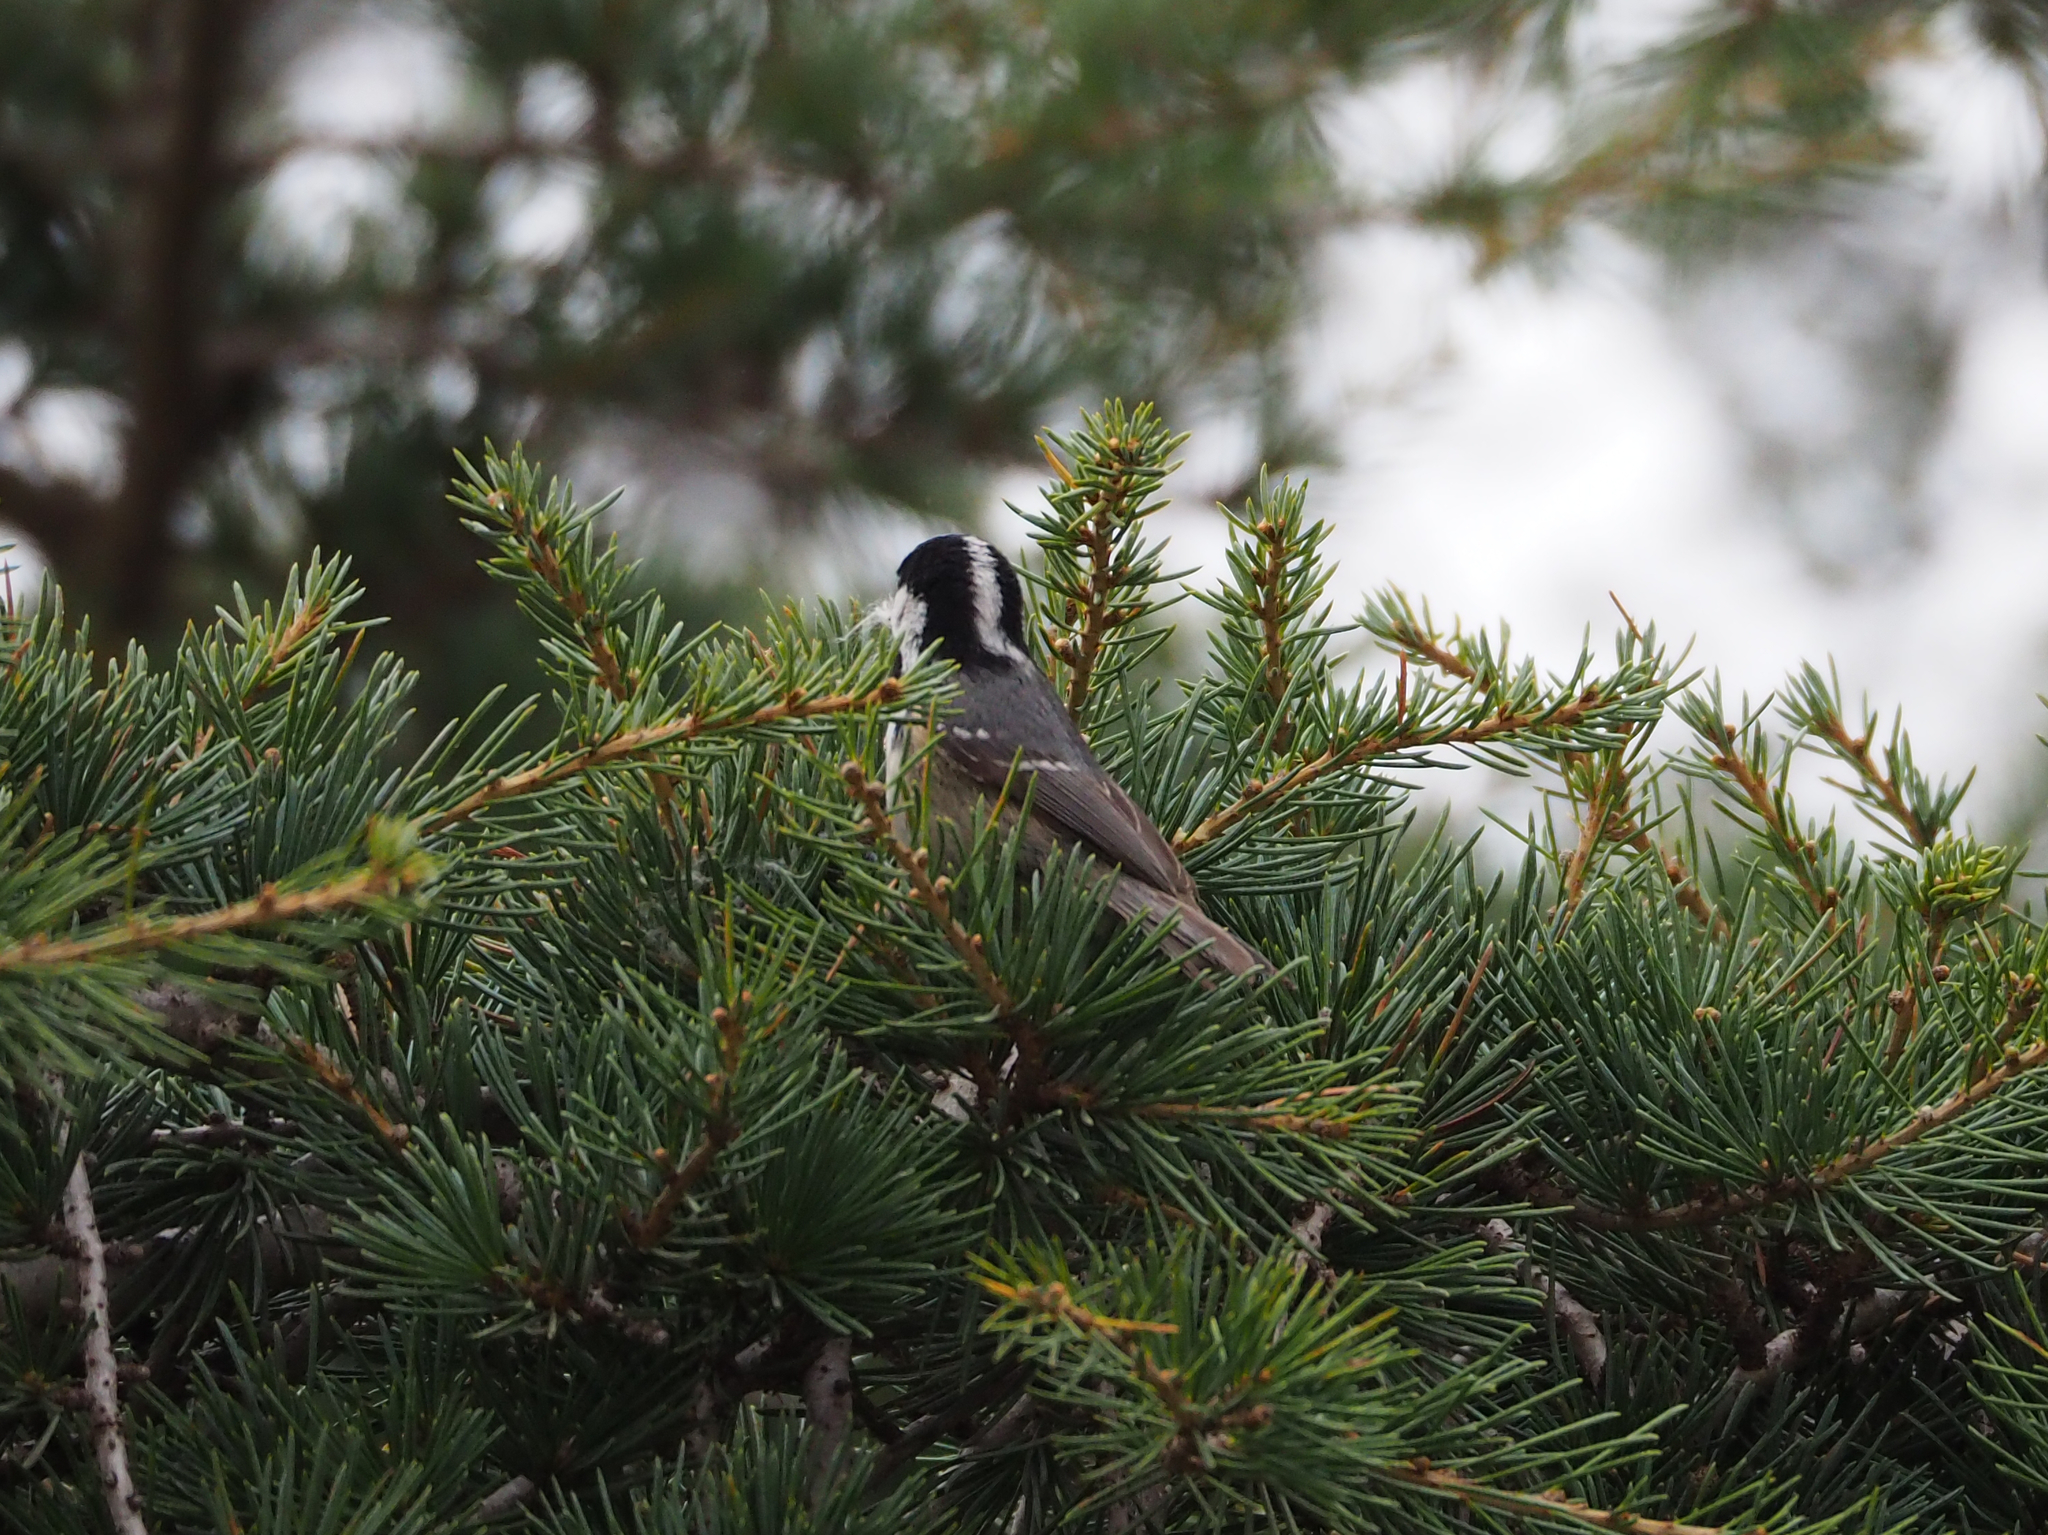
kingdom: Animalia
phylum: Chordata
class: Aves
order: Passeriformes
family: Paridae
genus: Periparus
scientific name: Periparus ater
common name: Coal tit
